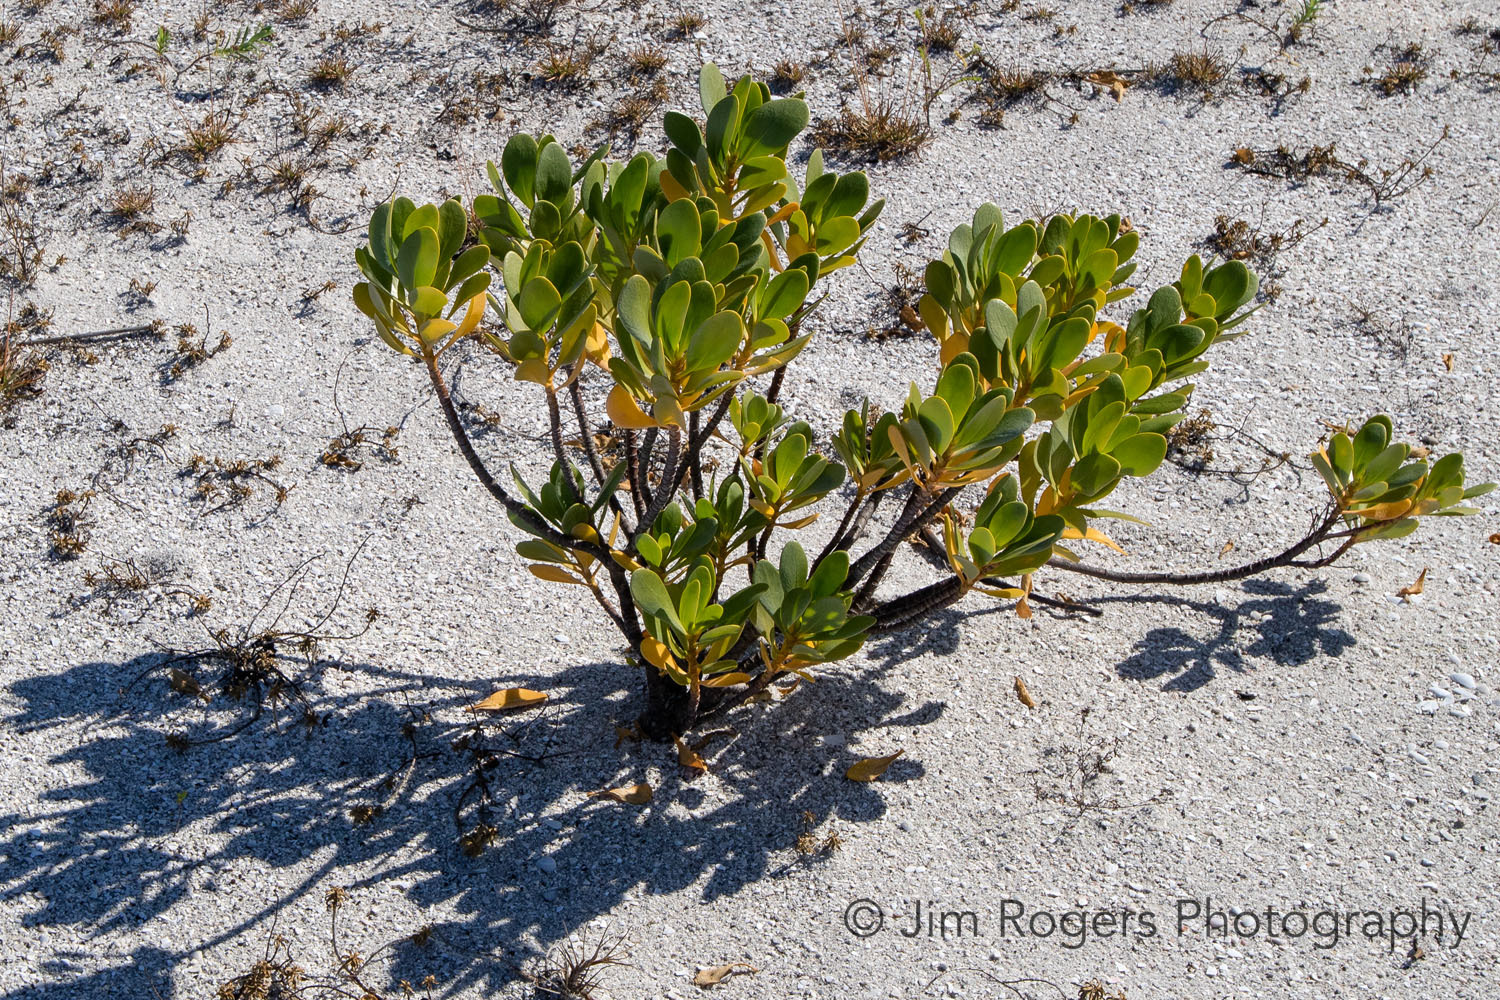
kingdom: Plantae
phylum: Tracheophyta
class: Magnoliopsida
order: Asterales
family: Goodeniaceae
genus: Scaevola
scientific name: Scaevola plumieri
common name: Gull feed
